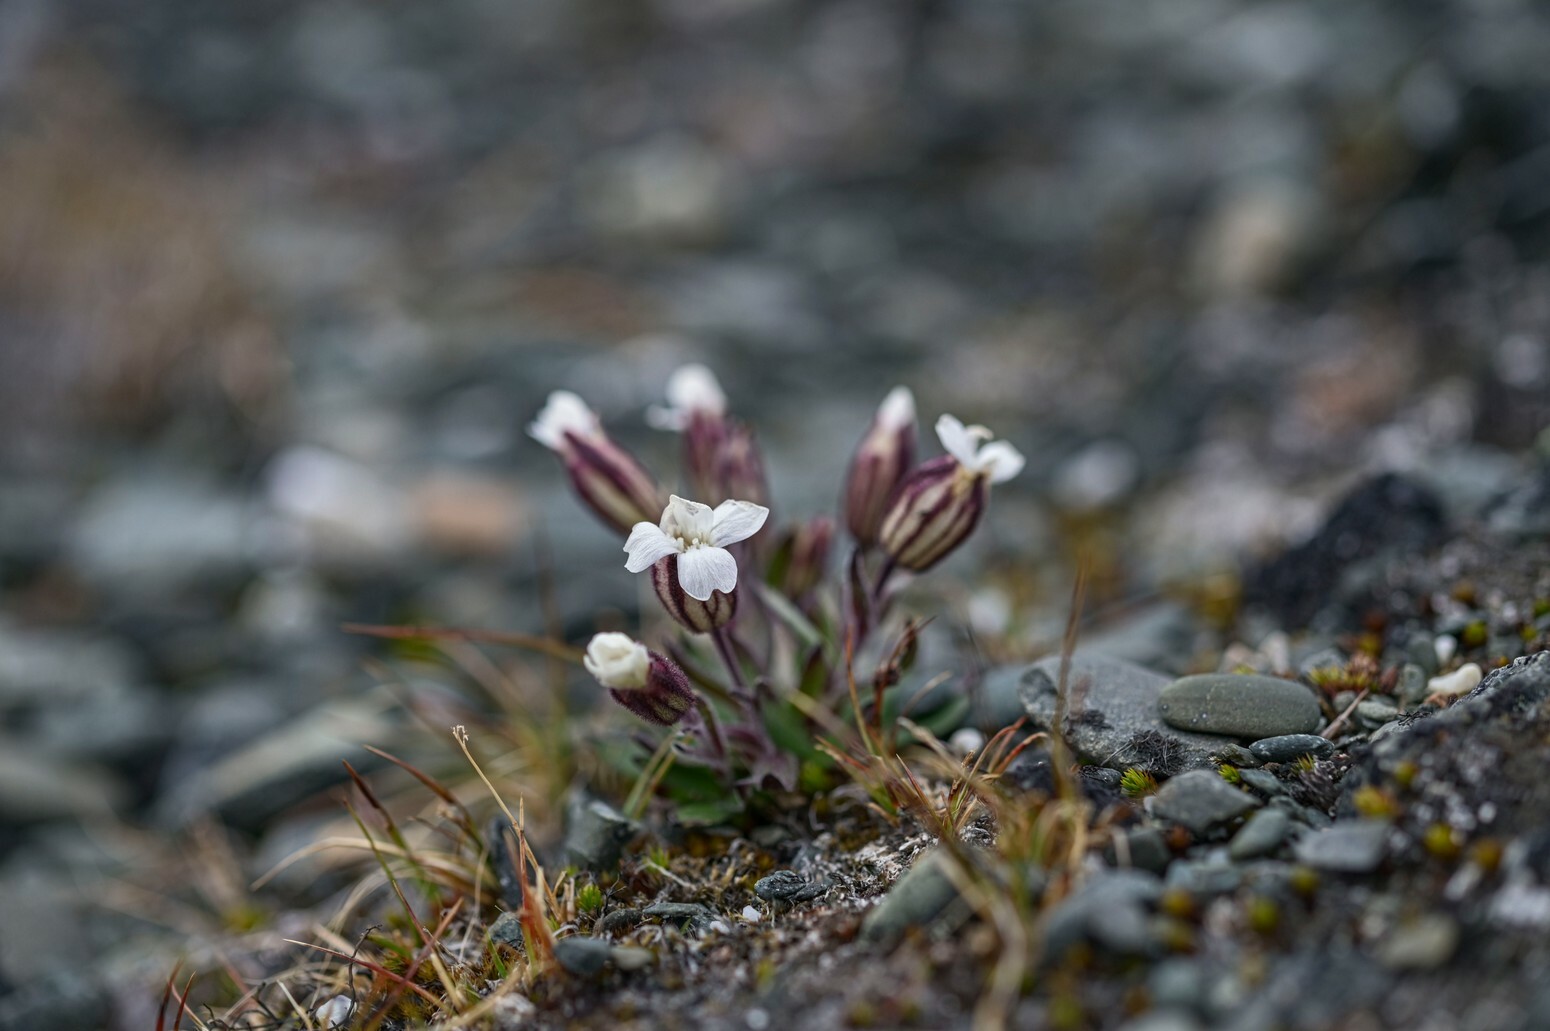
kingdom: Plantae
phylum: Tracheophyta
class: Magnoliopsida
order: Caryophyllales
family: Caryophyllaceae
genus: Silene
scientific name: Silene wahlbergella
